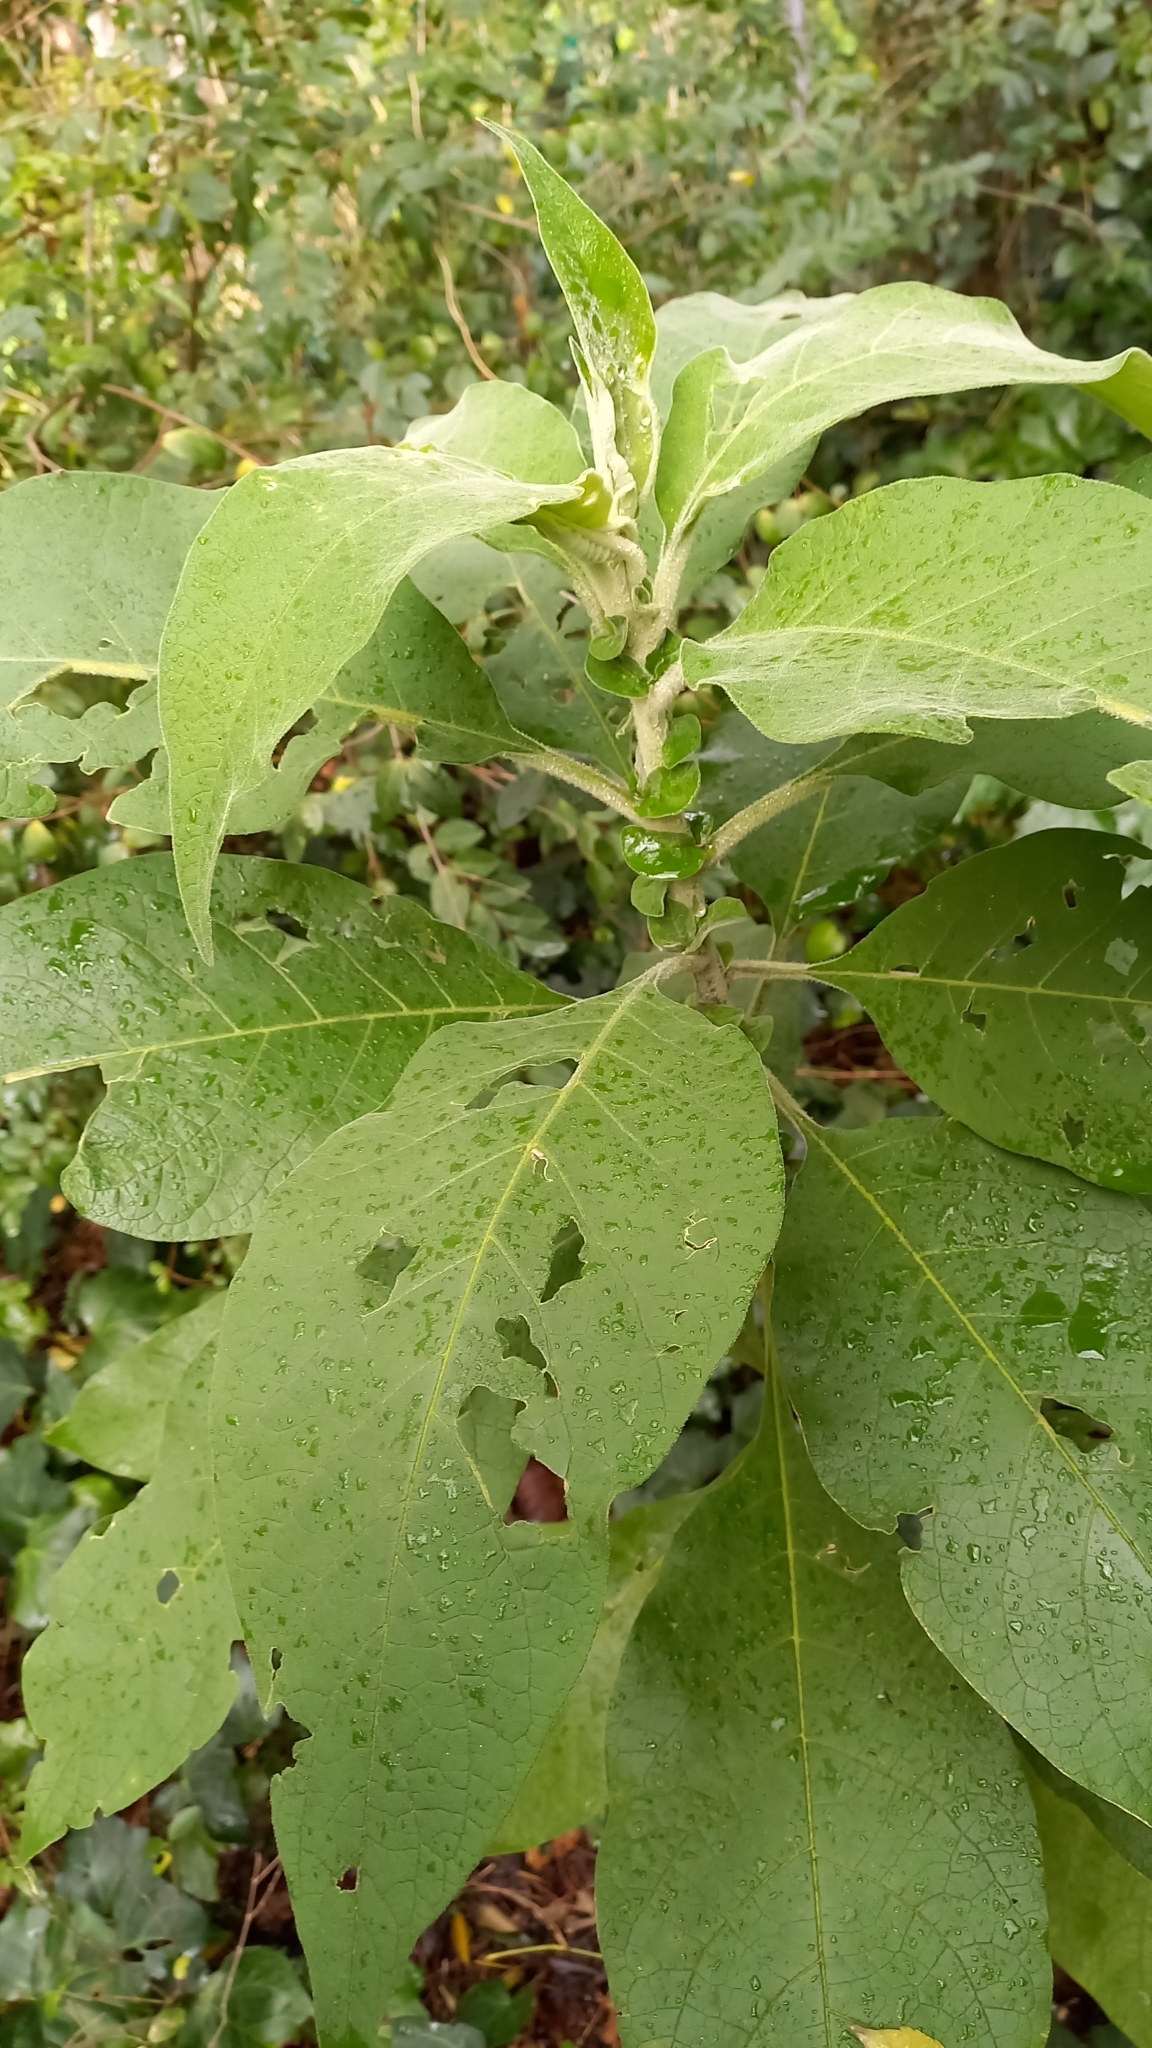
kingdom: Plantae
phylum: Tracheophyta
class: Magnoliopsida
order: Solanales
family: Solanaceae
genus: Solanum
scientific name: Solanum mauritianum
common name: Earleaf nightshade
